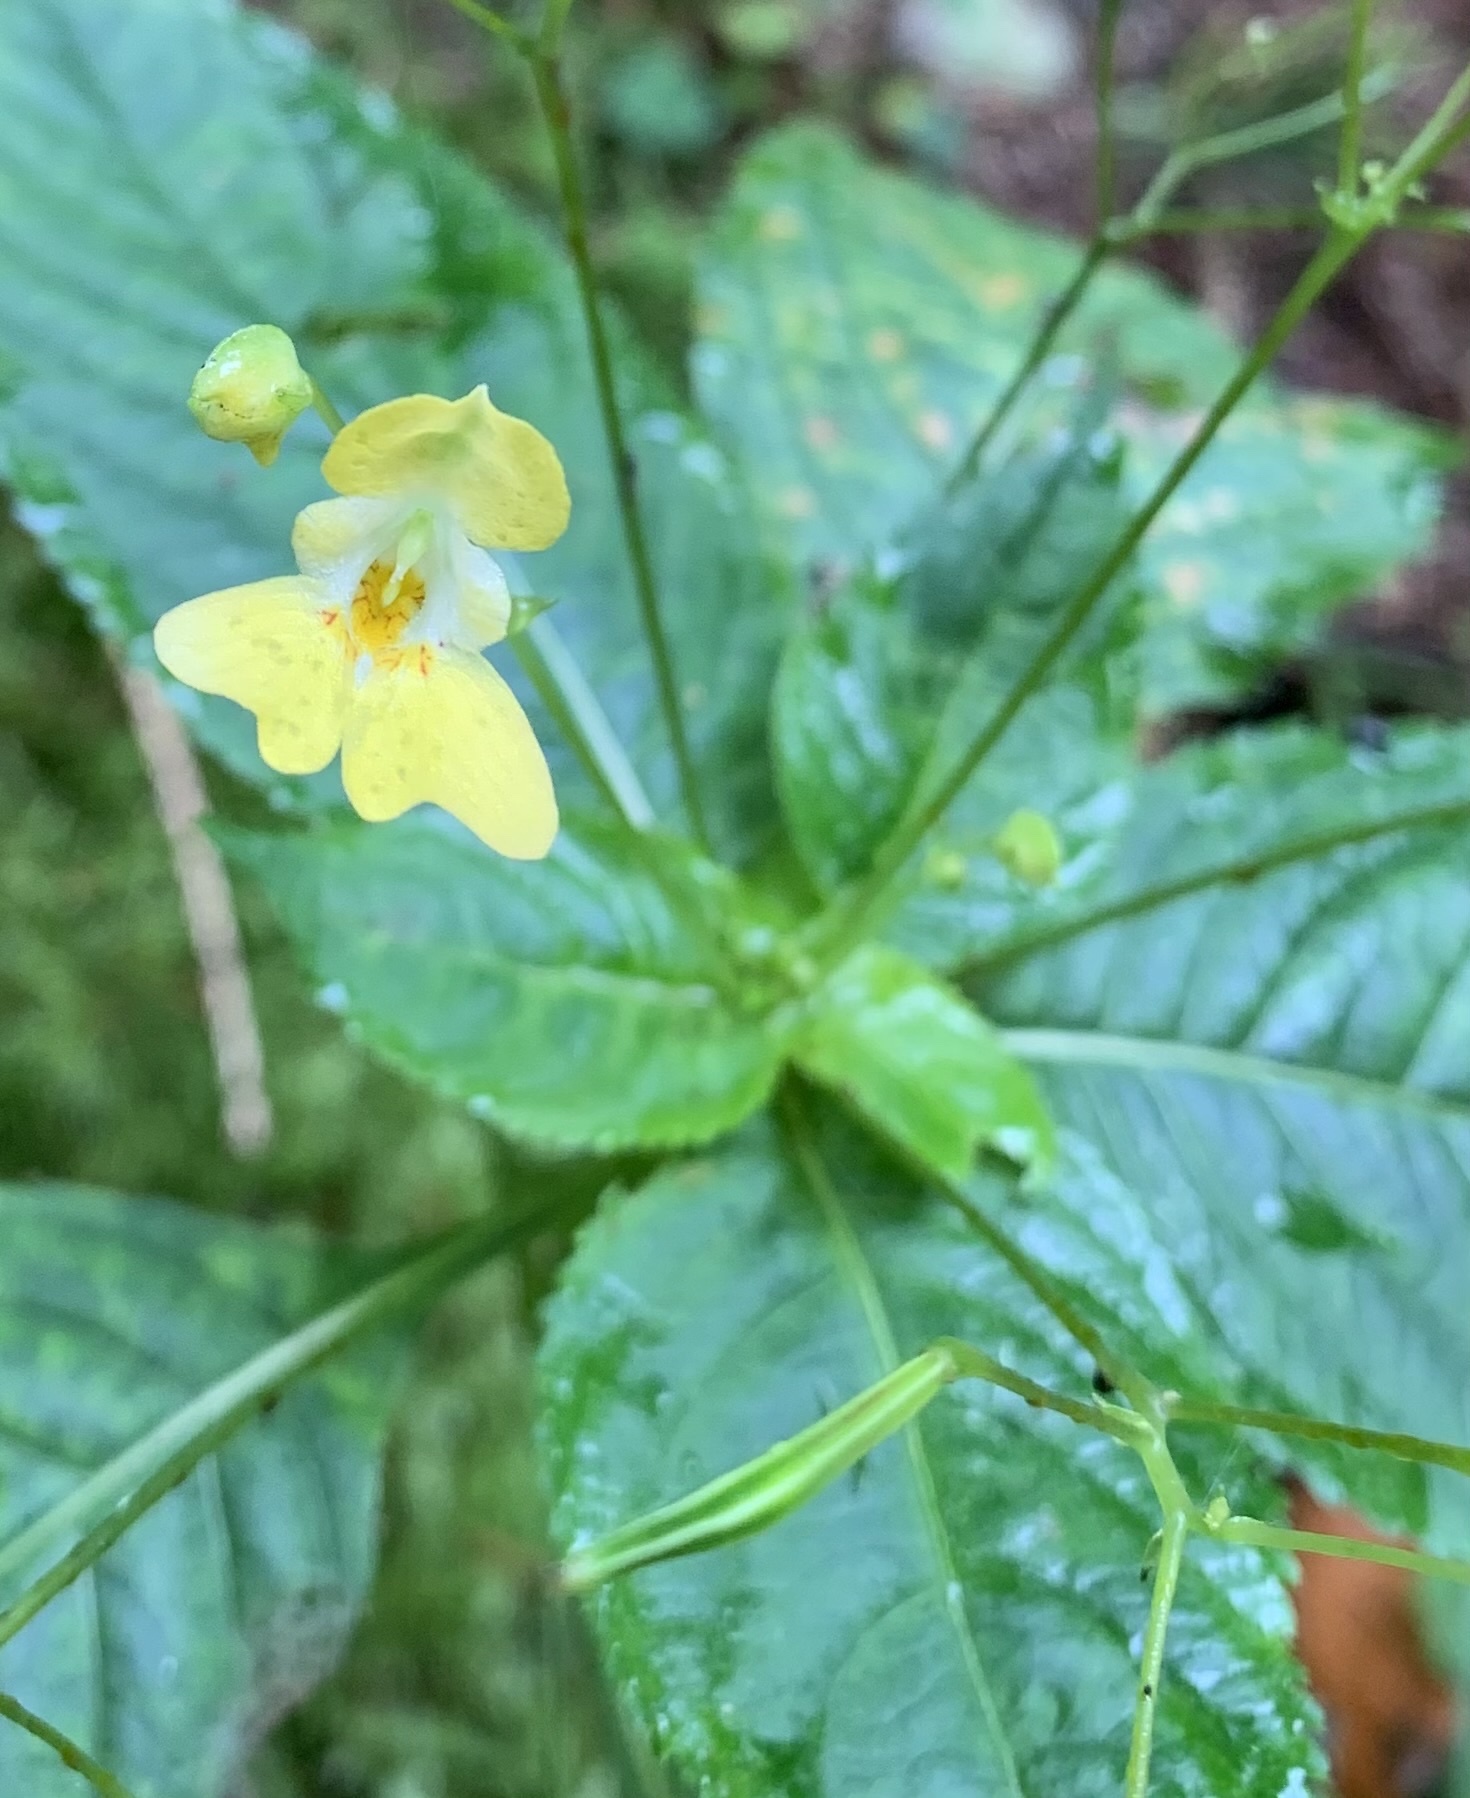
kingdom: Plantae
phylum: Tracheophyta
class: Magnoliopsida
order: Ericales
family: Balsaminaceae
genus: Impatiens
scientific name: Impatiens parviflora
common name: Small balsam
